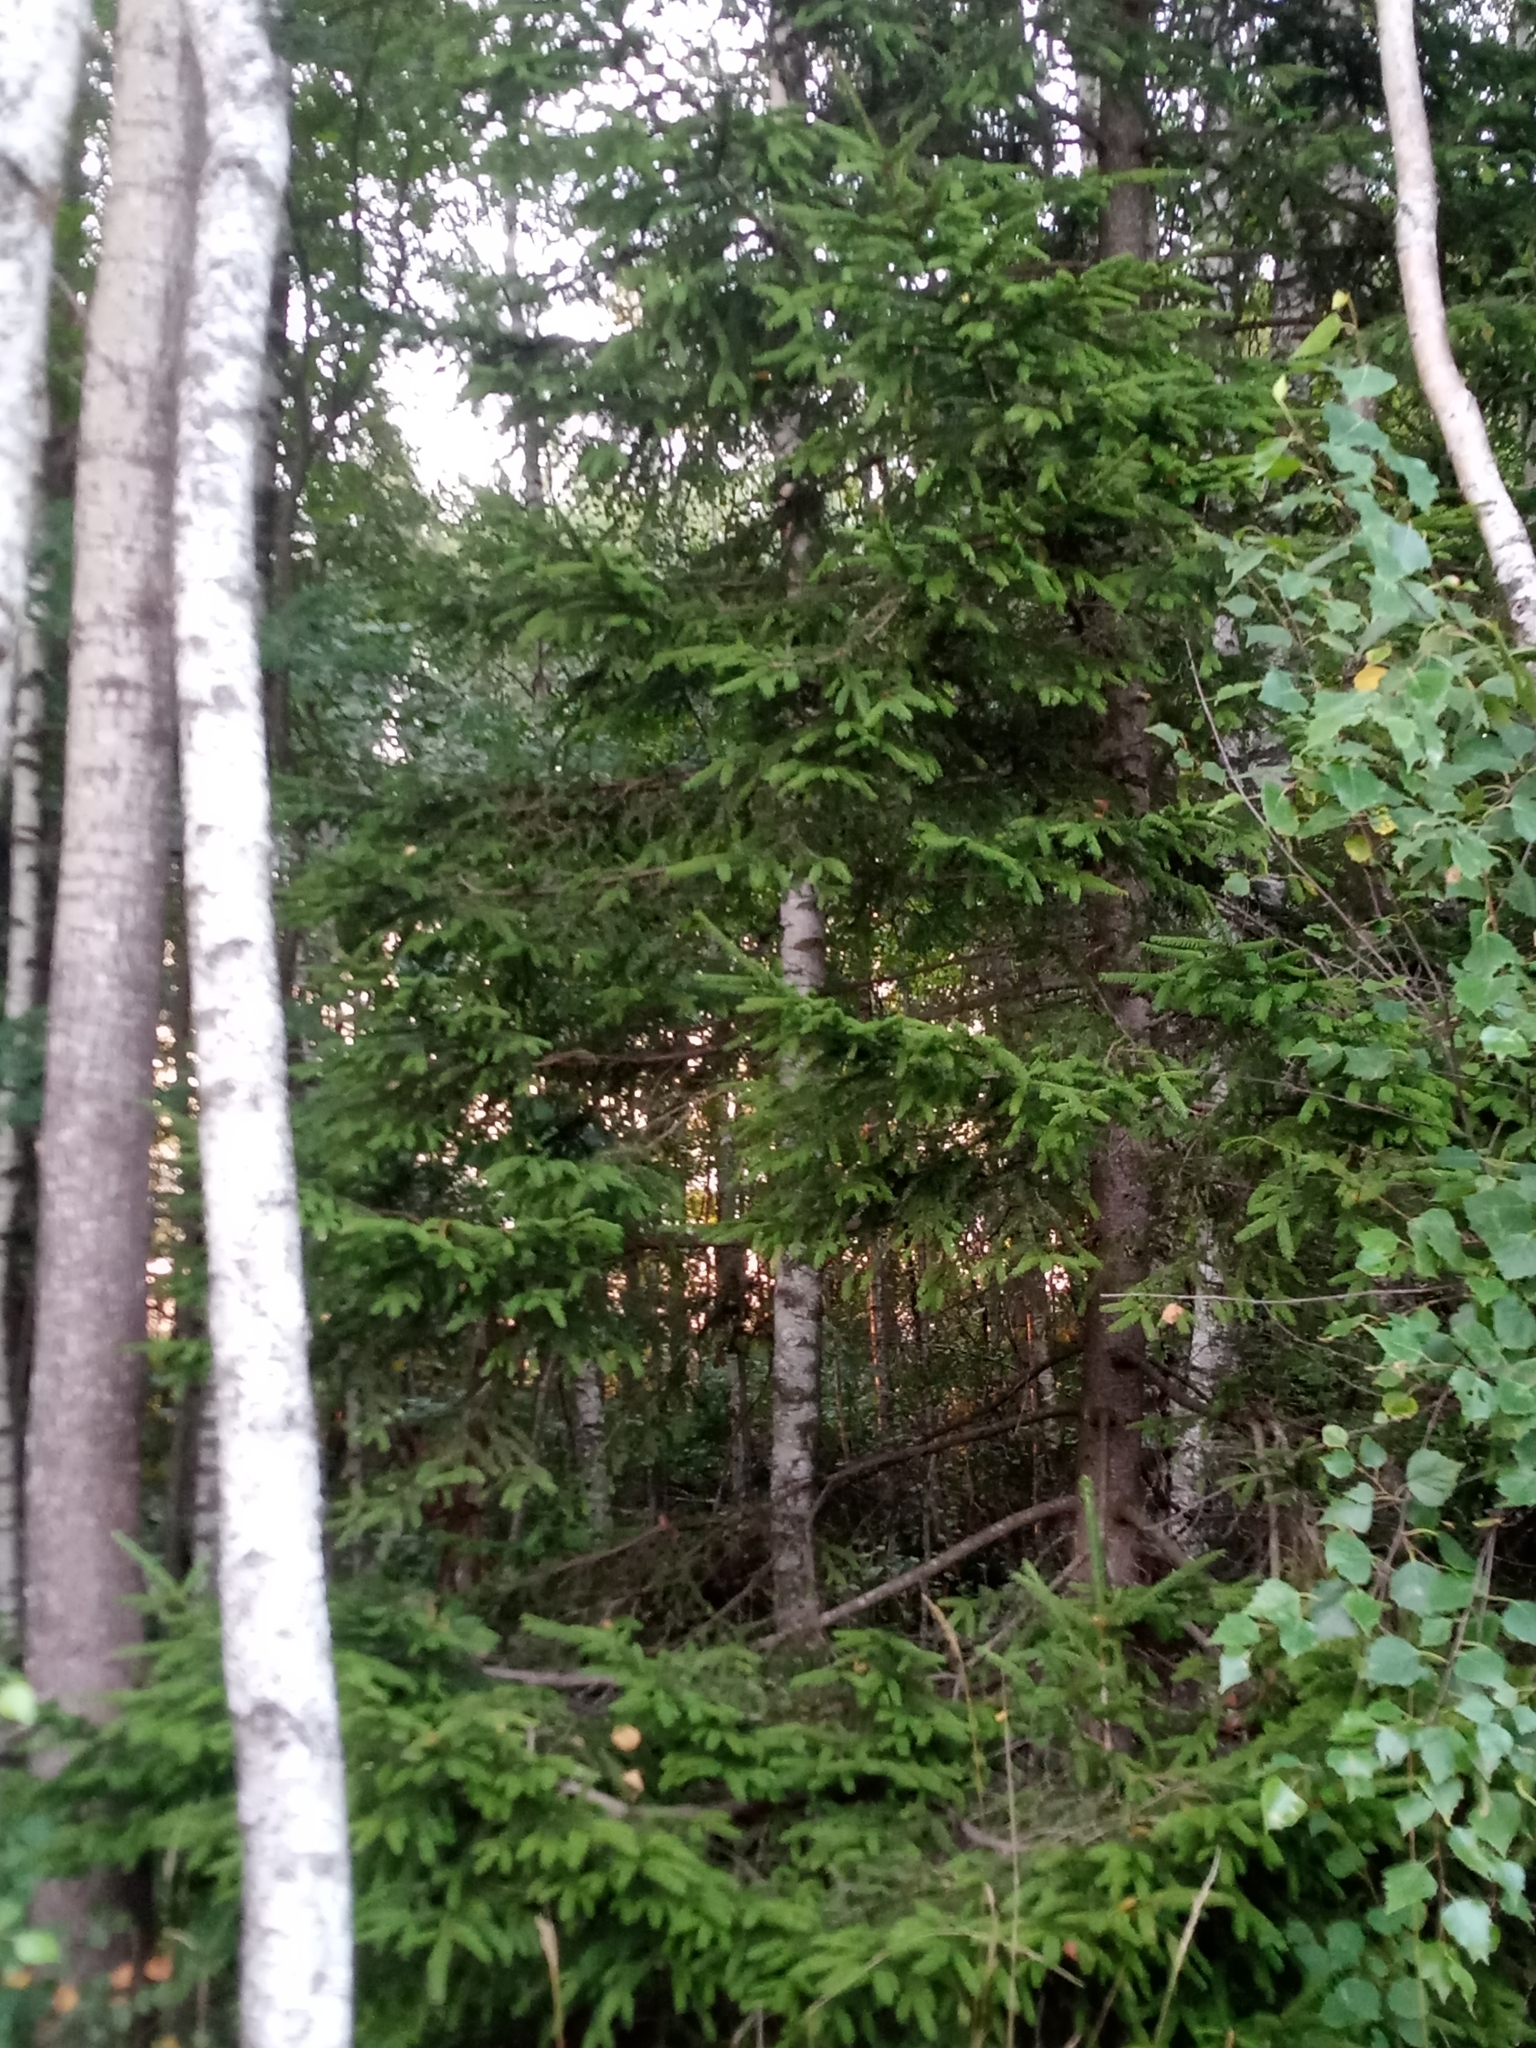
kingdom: Plantae
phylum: Tracheophyta
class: Pinopsida
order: Pinales
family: Pinaceae
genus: Picea
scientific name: Picea abies
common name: Norway spruce
